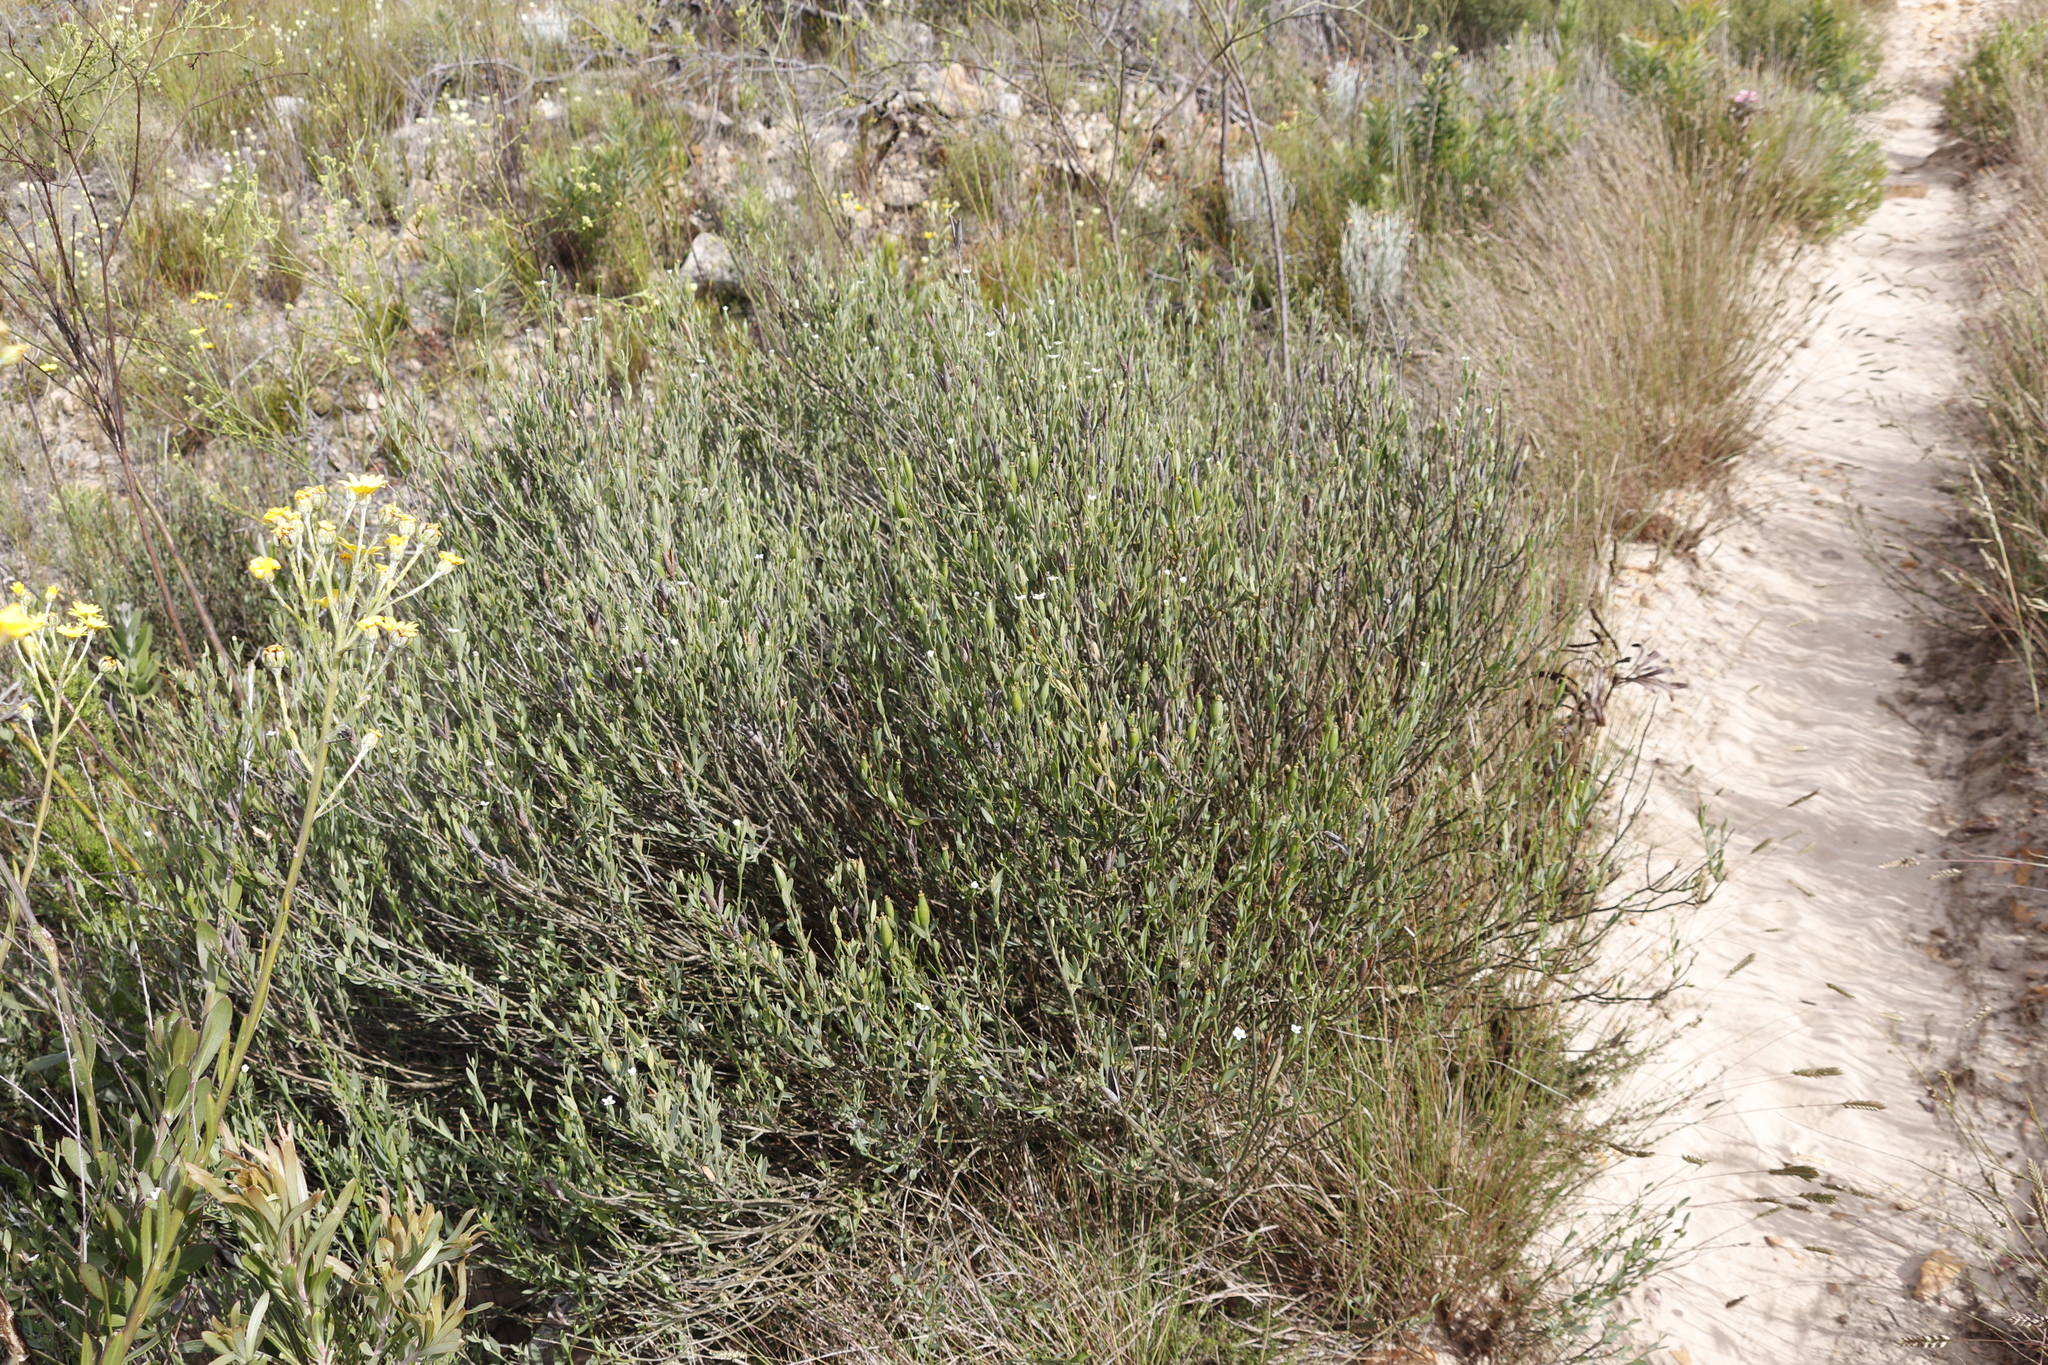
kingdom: Plantae
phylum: Tracheophyta
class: Magnoliopsida
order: Solanales
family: Montiniaceae
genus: Montinia
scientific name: Montinia caryophyllacea
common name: Wild clove-bush
